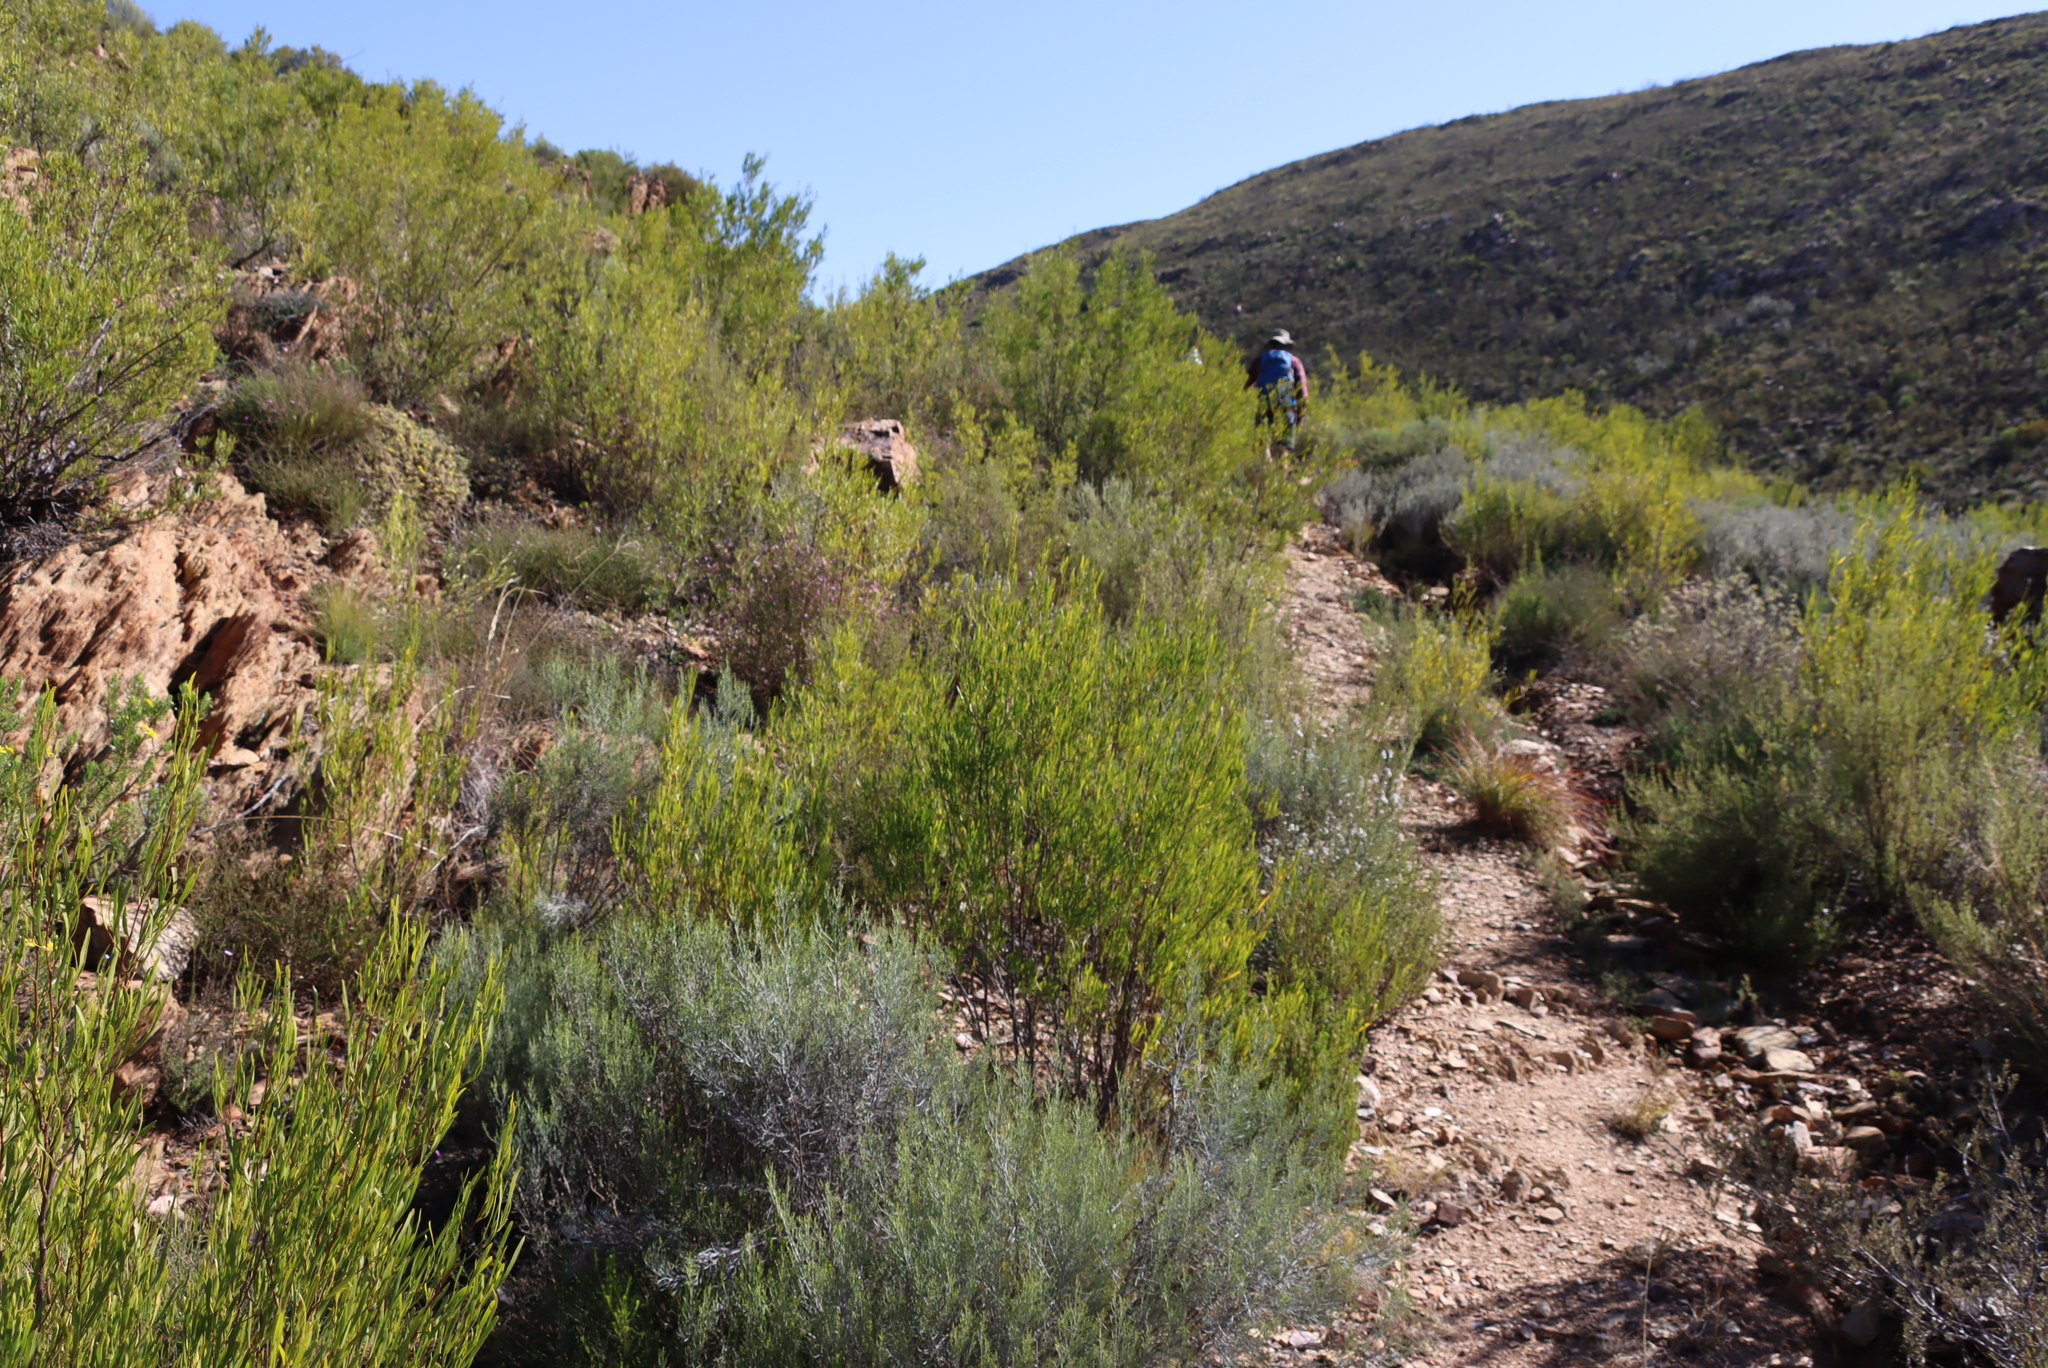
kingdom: Plantae
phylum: Tracheophyta
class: Magnoliopsida
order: Sapindales
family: Sapindaceae
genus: Dodonaea
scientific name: Dodonaea viscosa
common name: Hopbush
